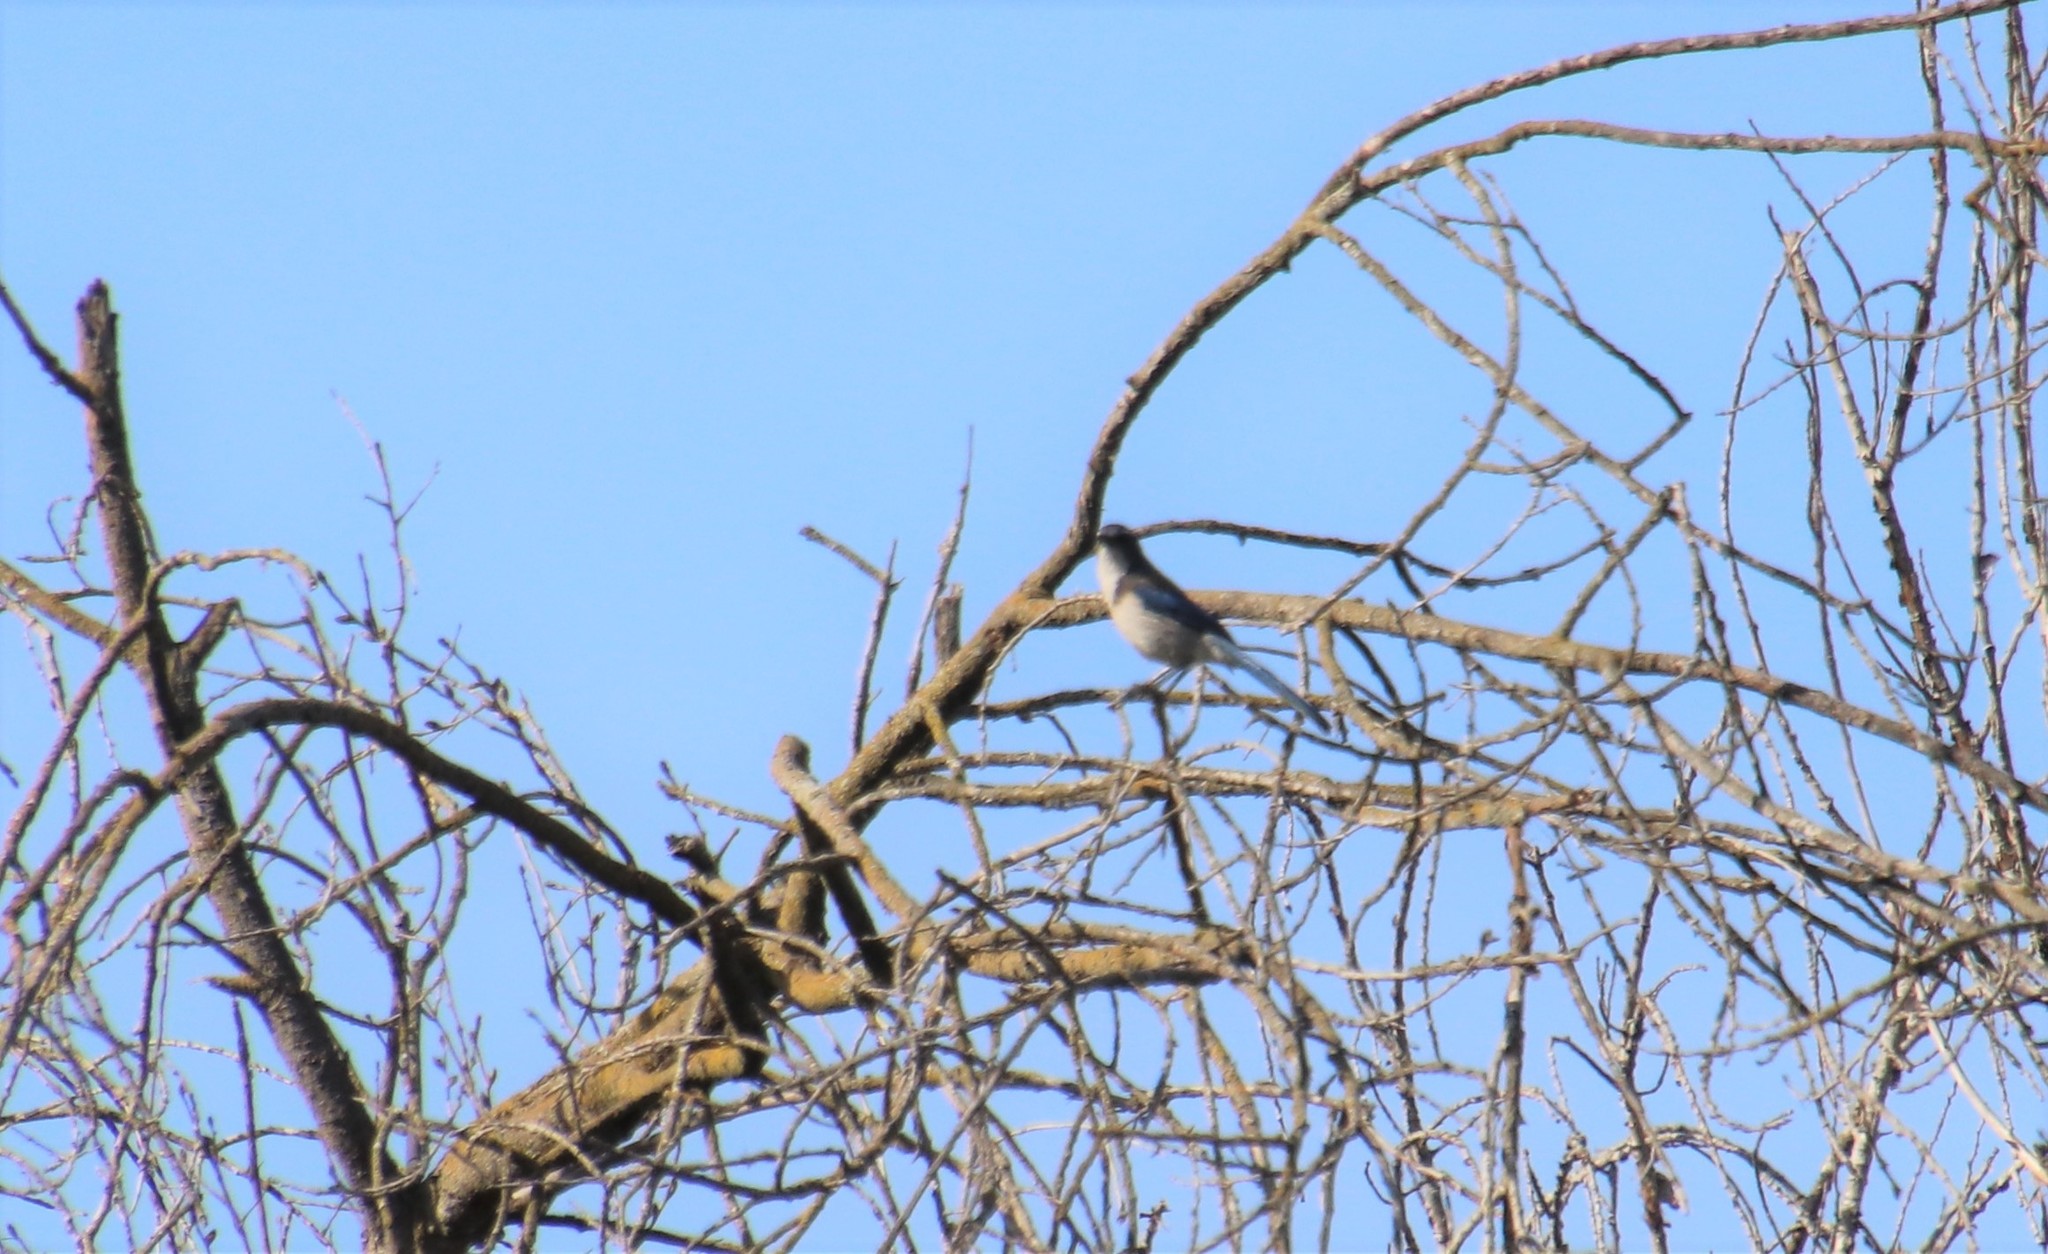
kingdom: Animalia
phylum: Chordata
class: Aves
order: Passeriformes
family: Corvidae
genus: Aphelocoma
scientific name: Aphelocoma californica
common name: California scrub-jay
